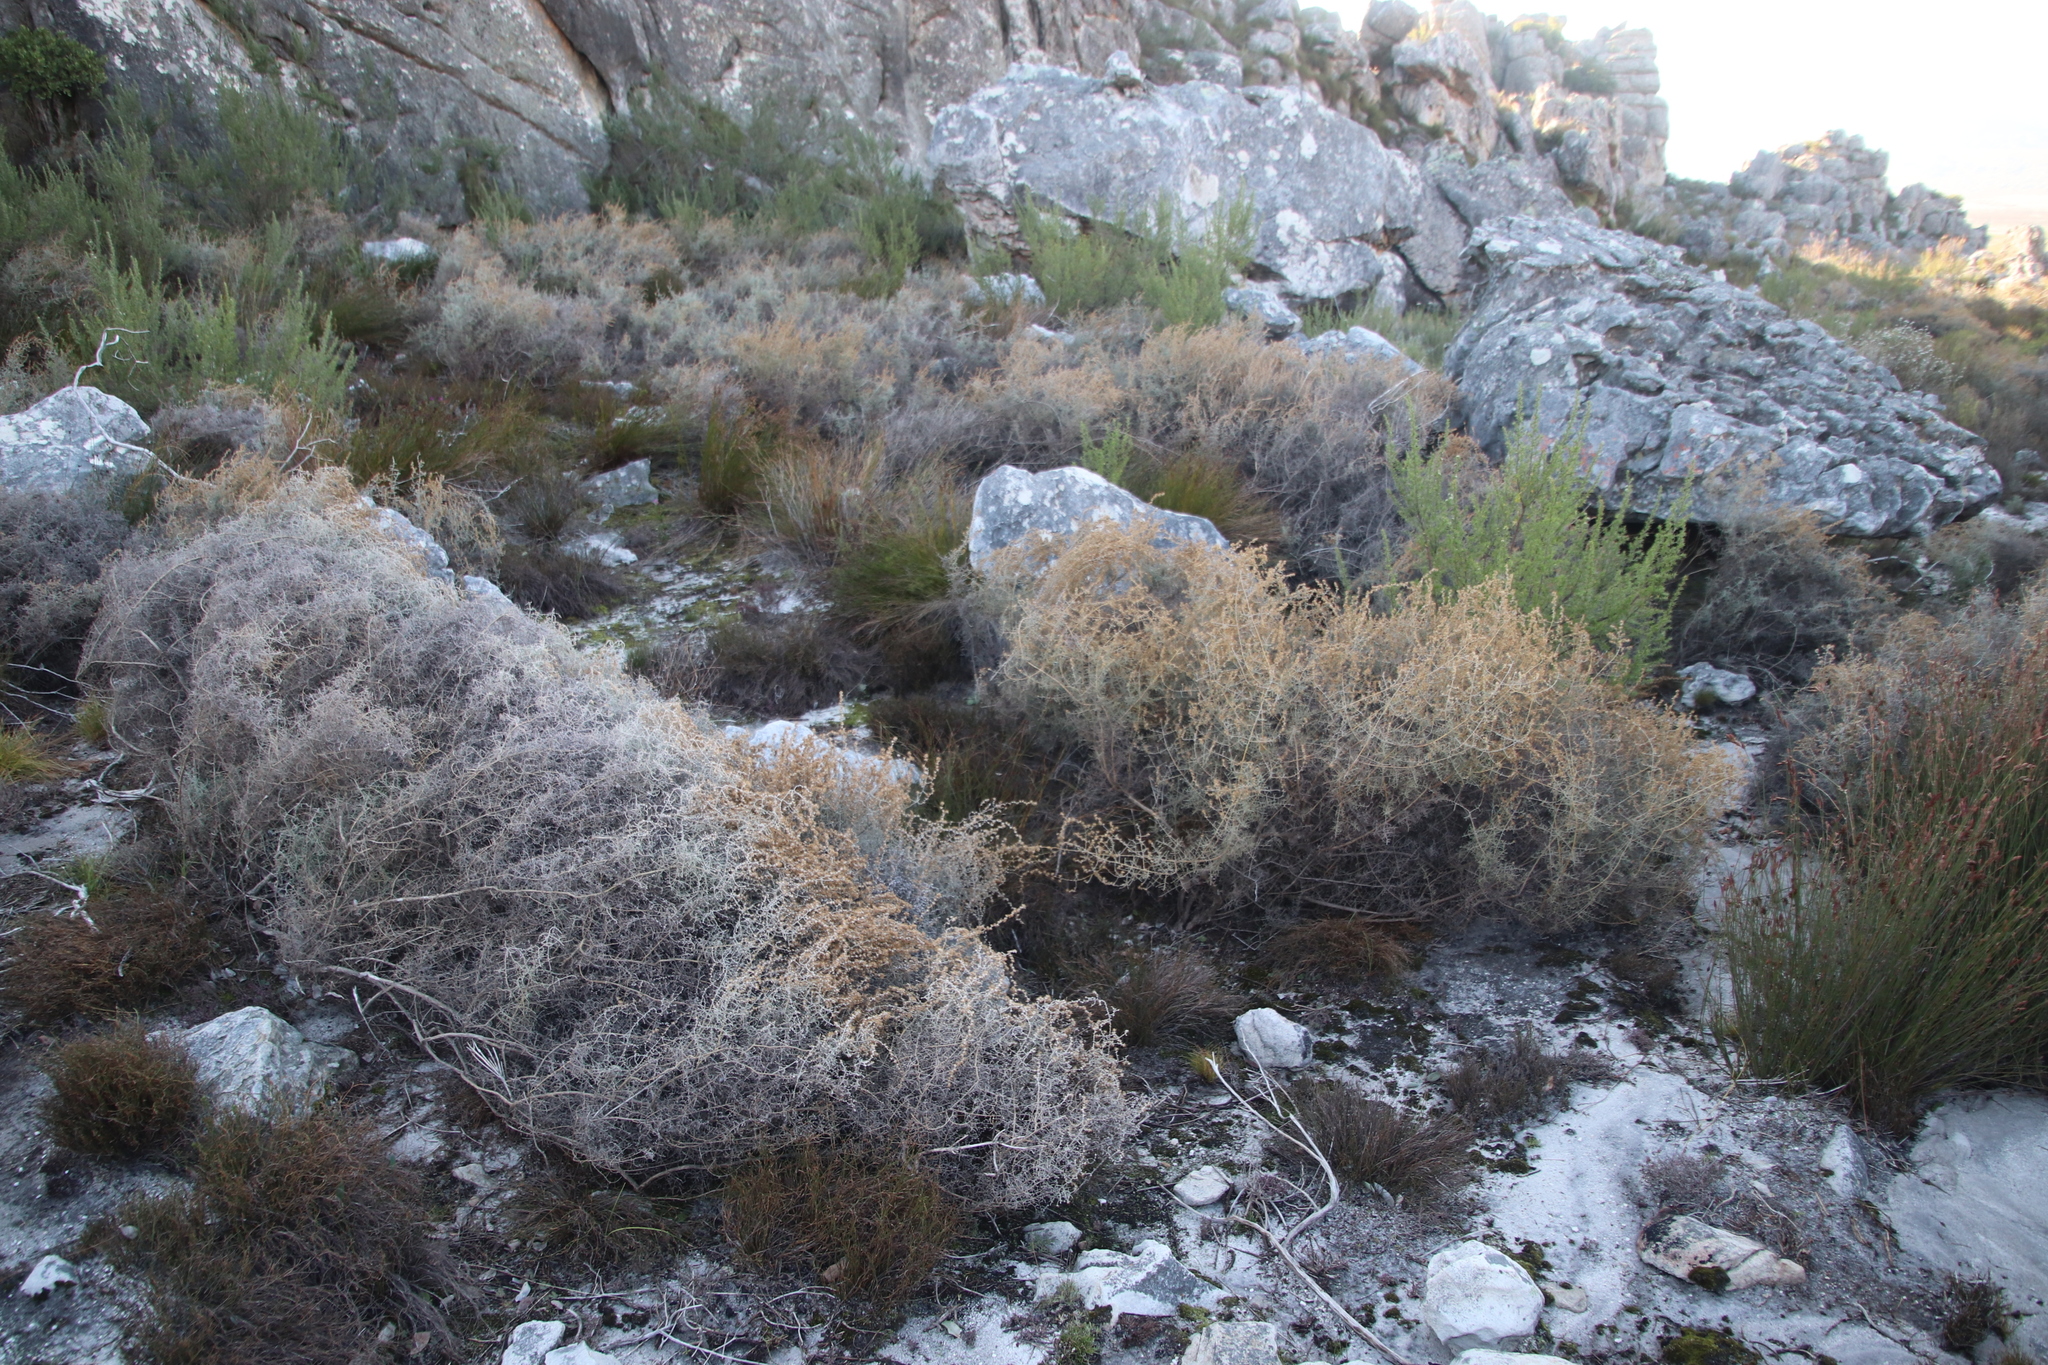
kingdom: Plantae
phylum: Tracheophyta
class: Magnoliopsida
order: Asterales
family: Asteraceae
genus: Seriphium
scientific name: Seriphium plumosum
